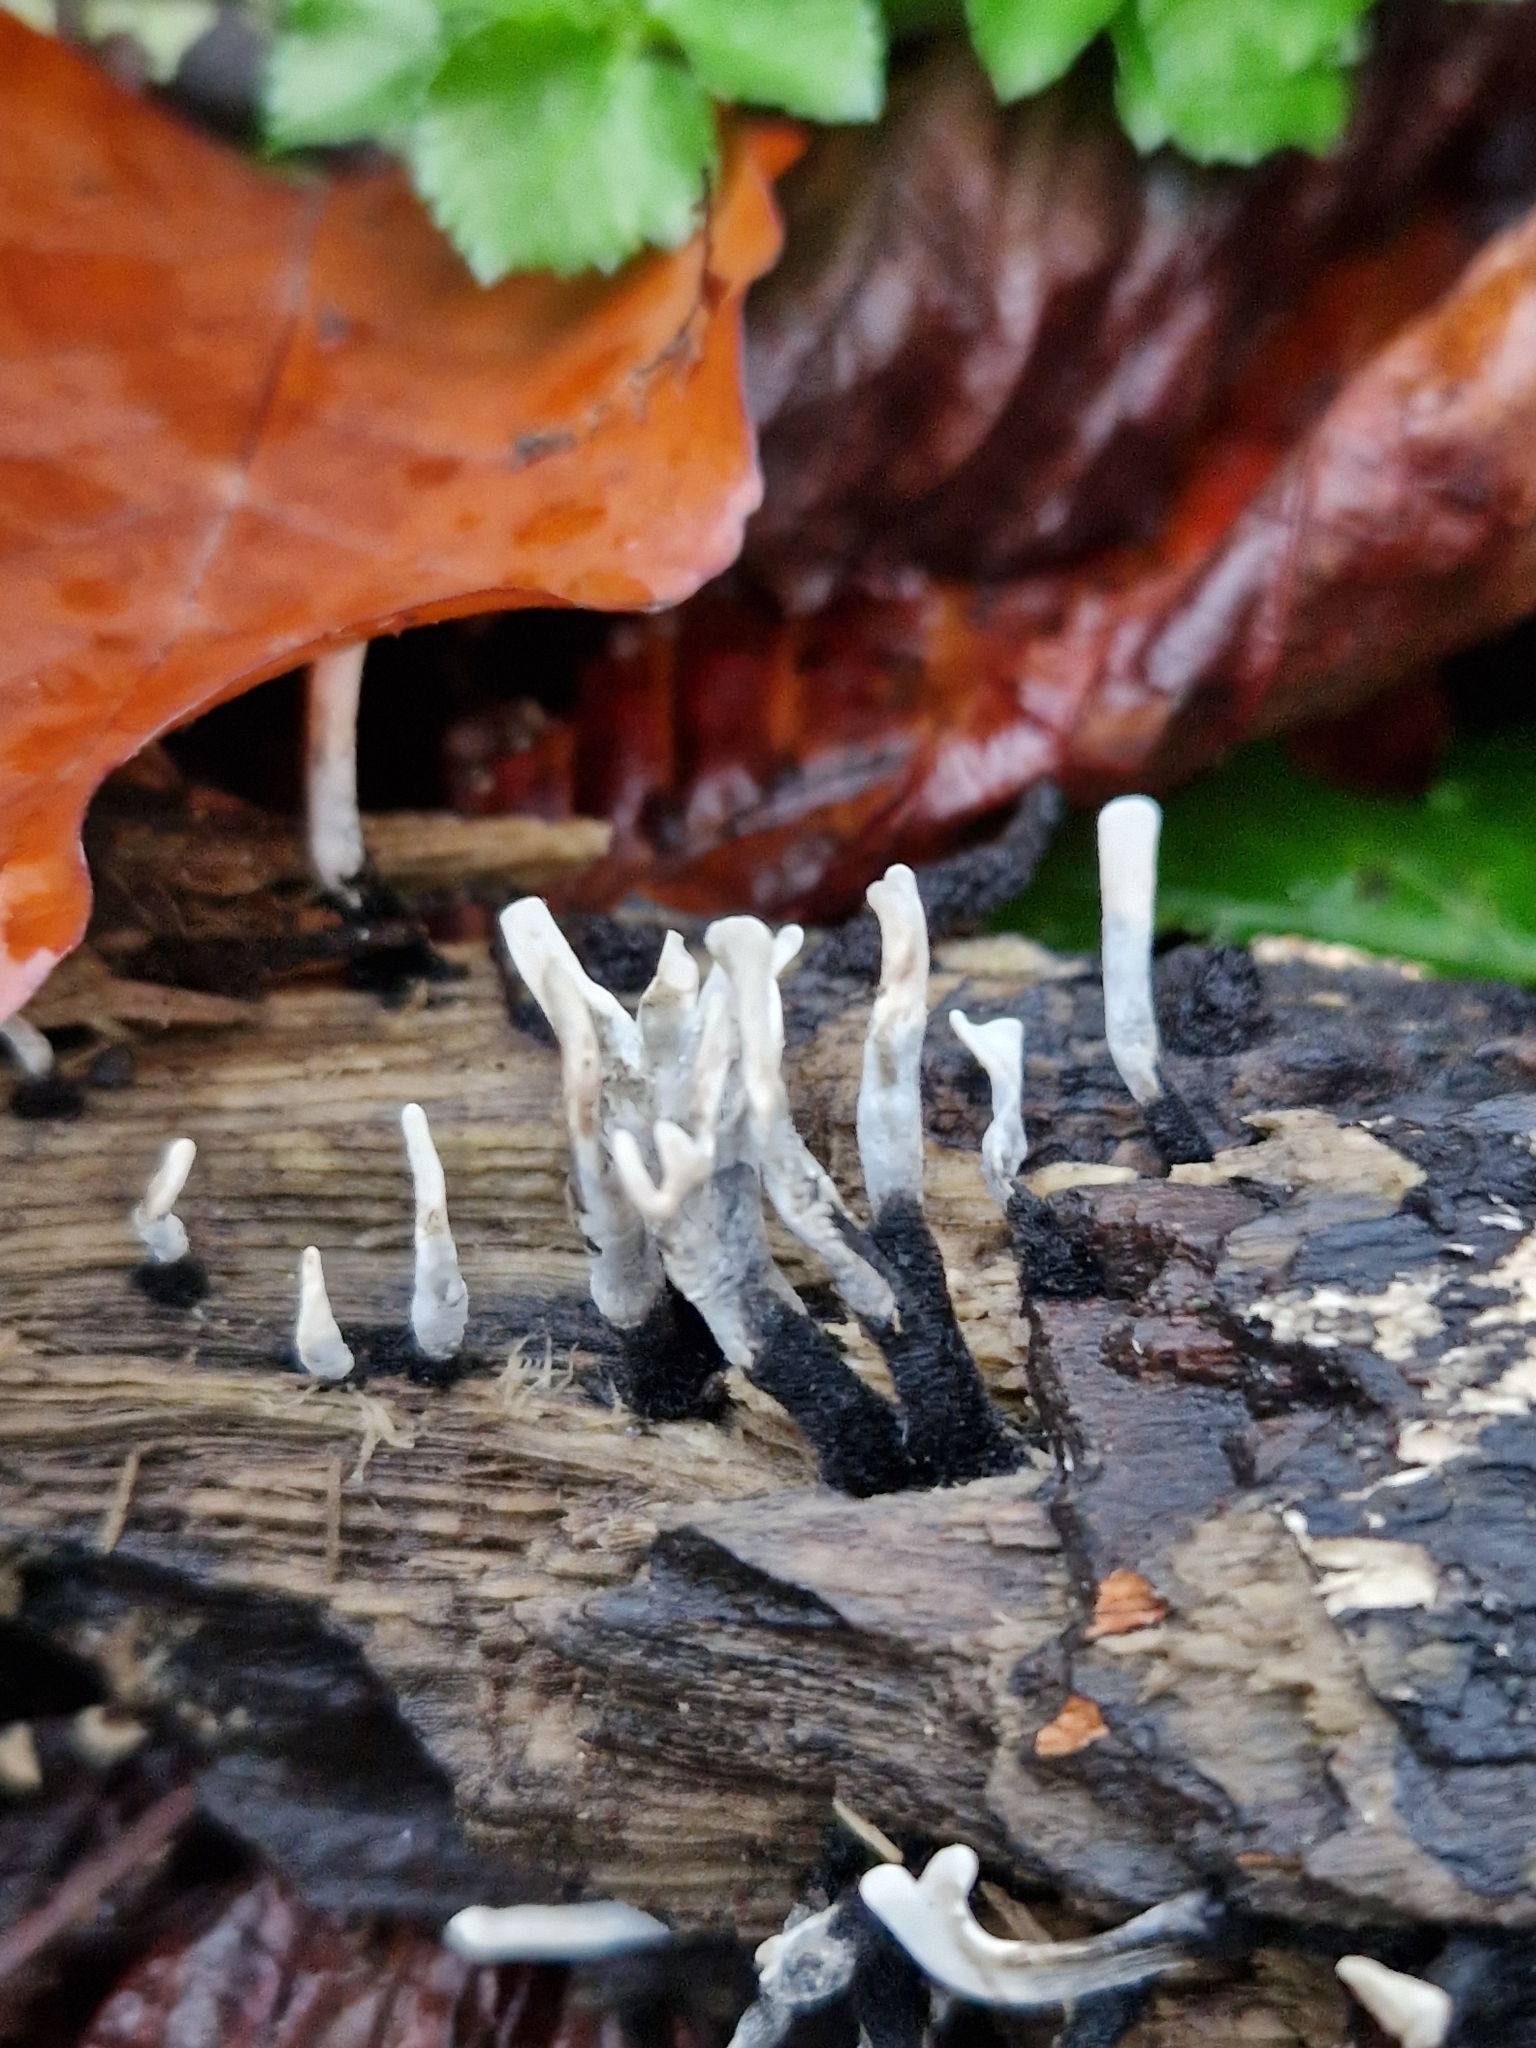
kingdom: Fungi
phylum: Ascomycota
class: Sordariomycetes
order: Xylariales
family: Xylariaceae
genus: Xylaria
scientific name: Xylaria hypoxylon
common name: Candle-snuff fungus
